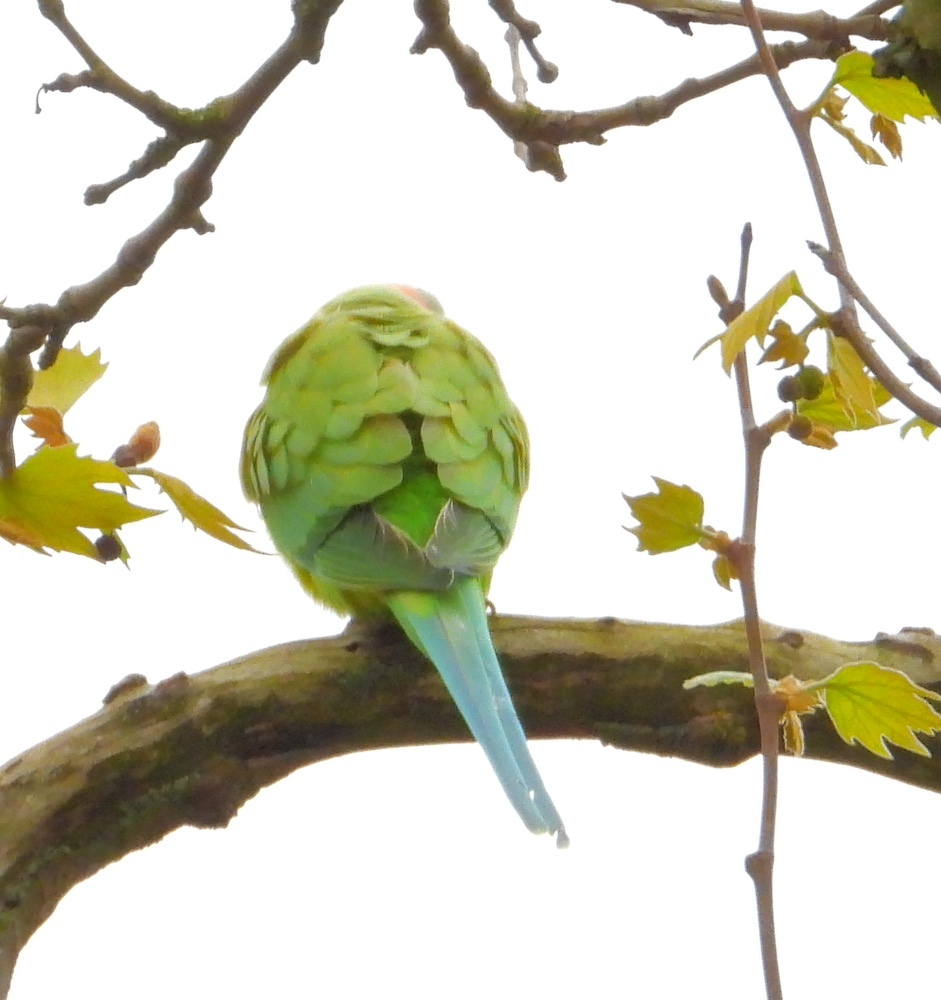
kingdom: Animalia
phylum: Chordata
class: Aves
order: Psittaciformes
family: Psittacidae
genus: Psittacula
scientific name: Psittacula krameri
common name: Rose-ringed parakeet
